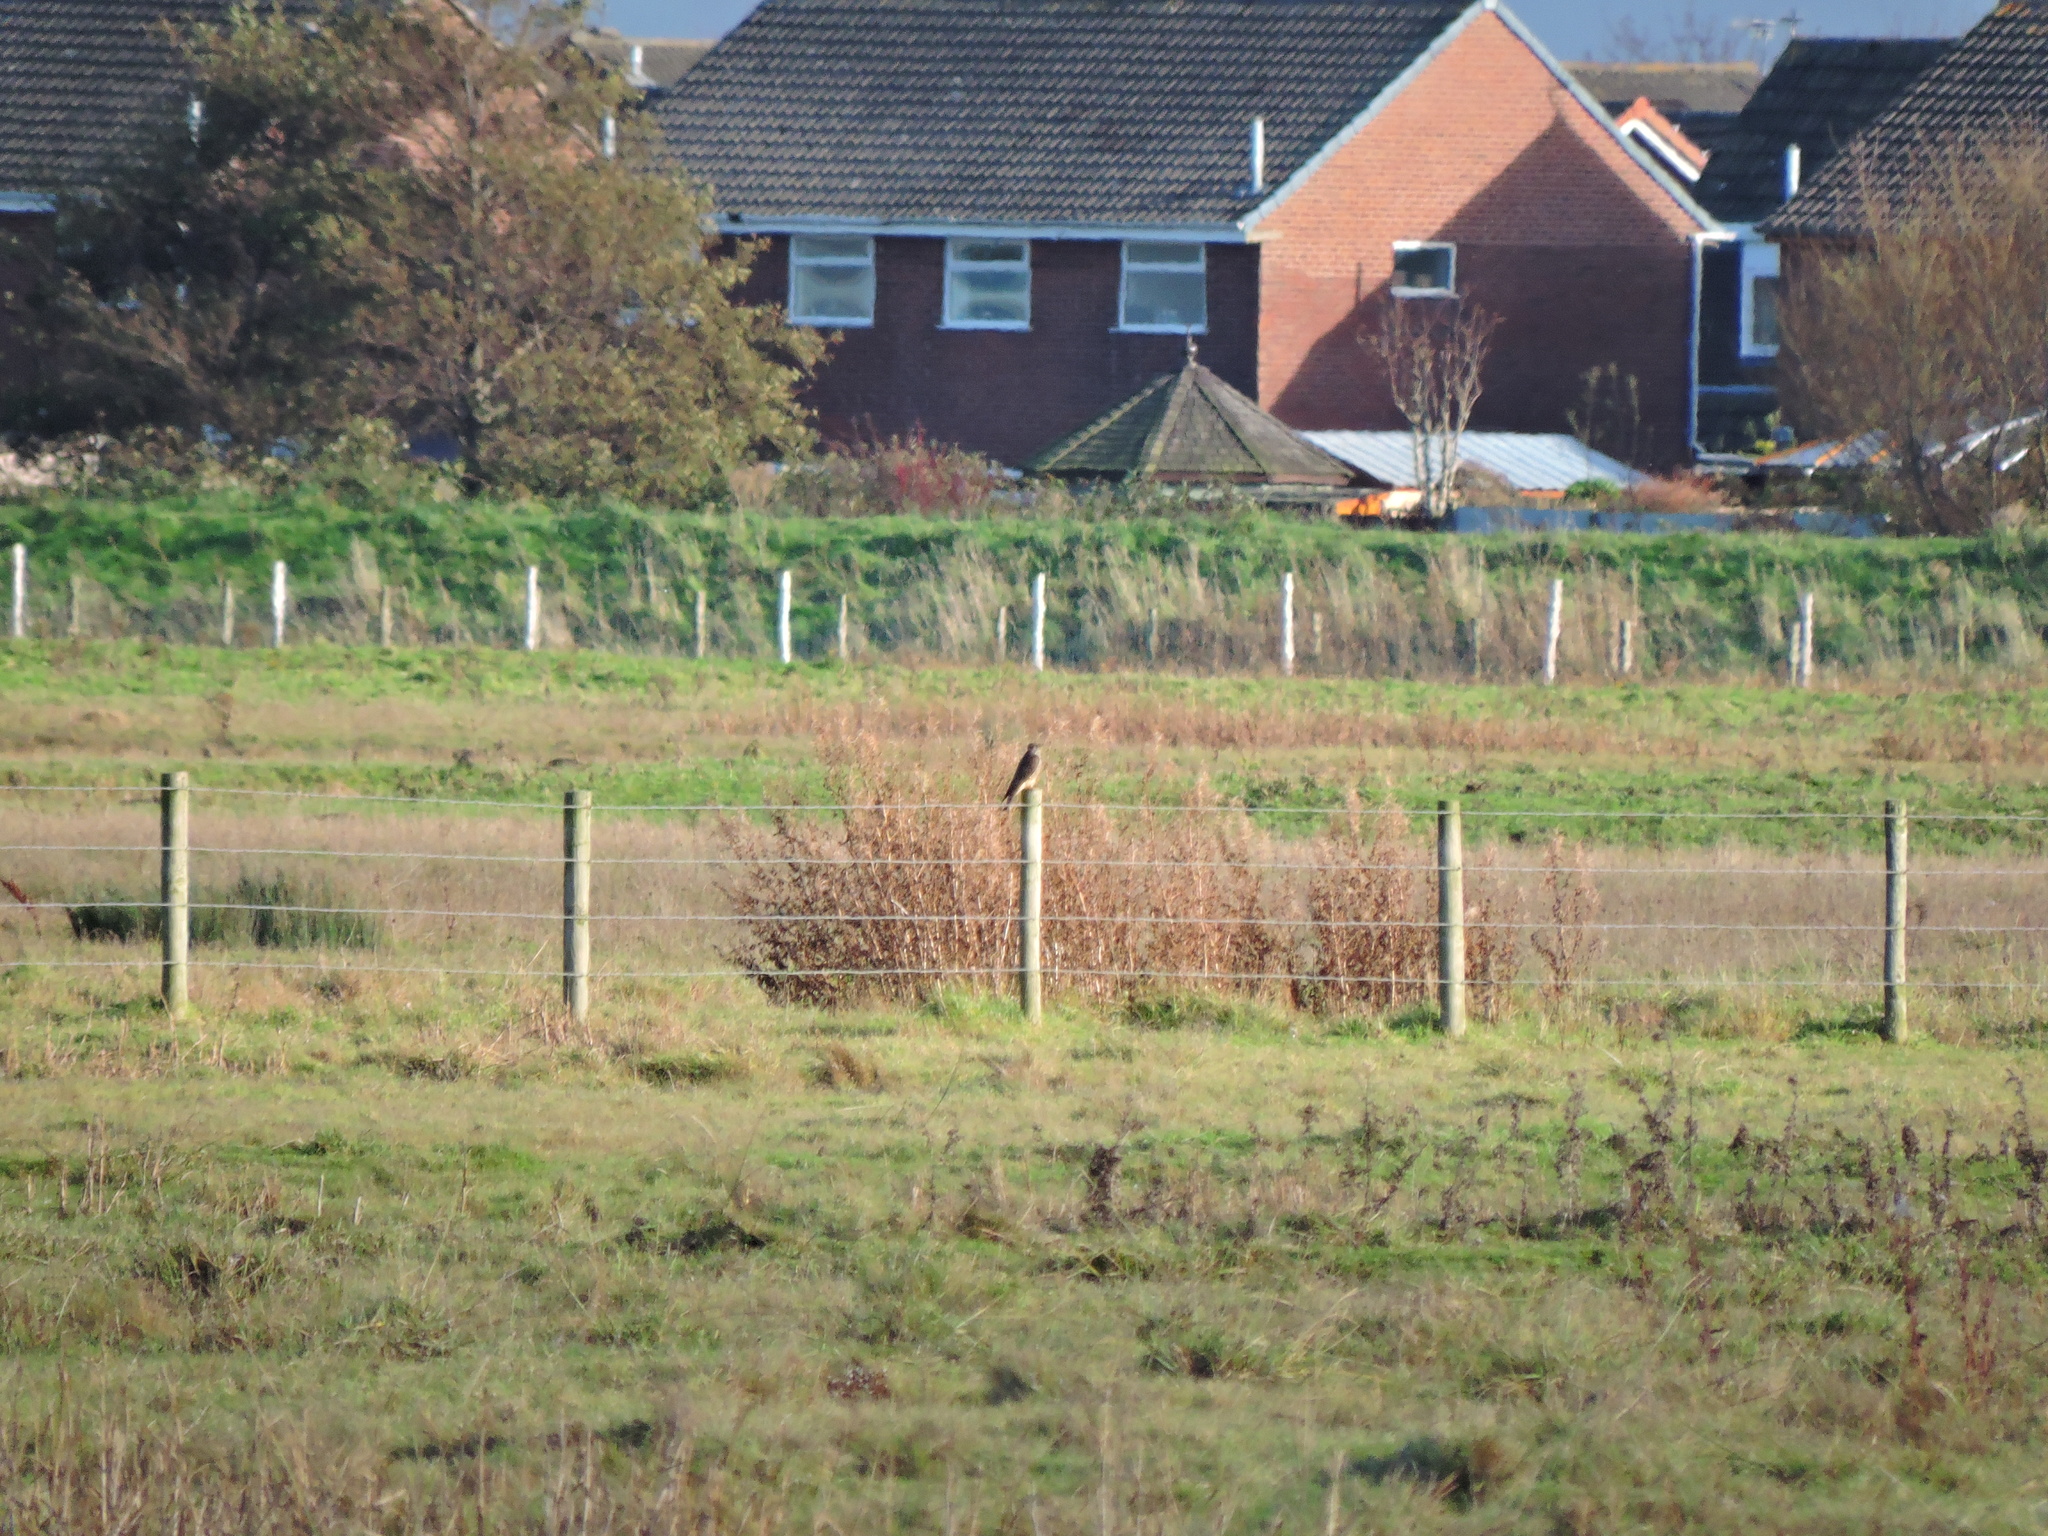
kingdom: Animalia
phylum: Chordata
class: Aves
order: Falconiformes
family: Falconidae
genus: Falco
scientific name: Falco columbarius
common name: Merlin
